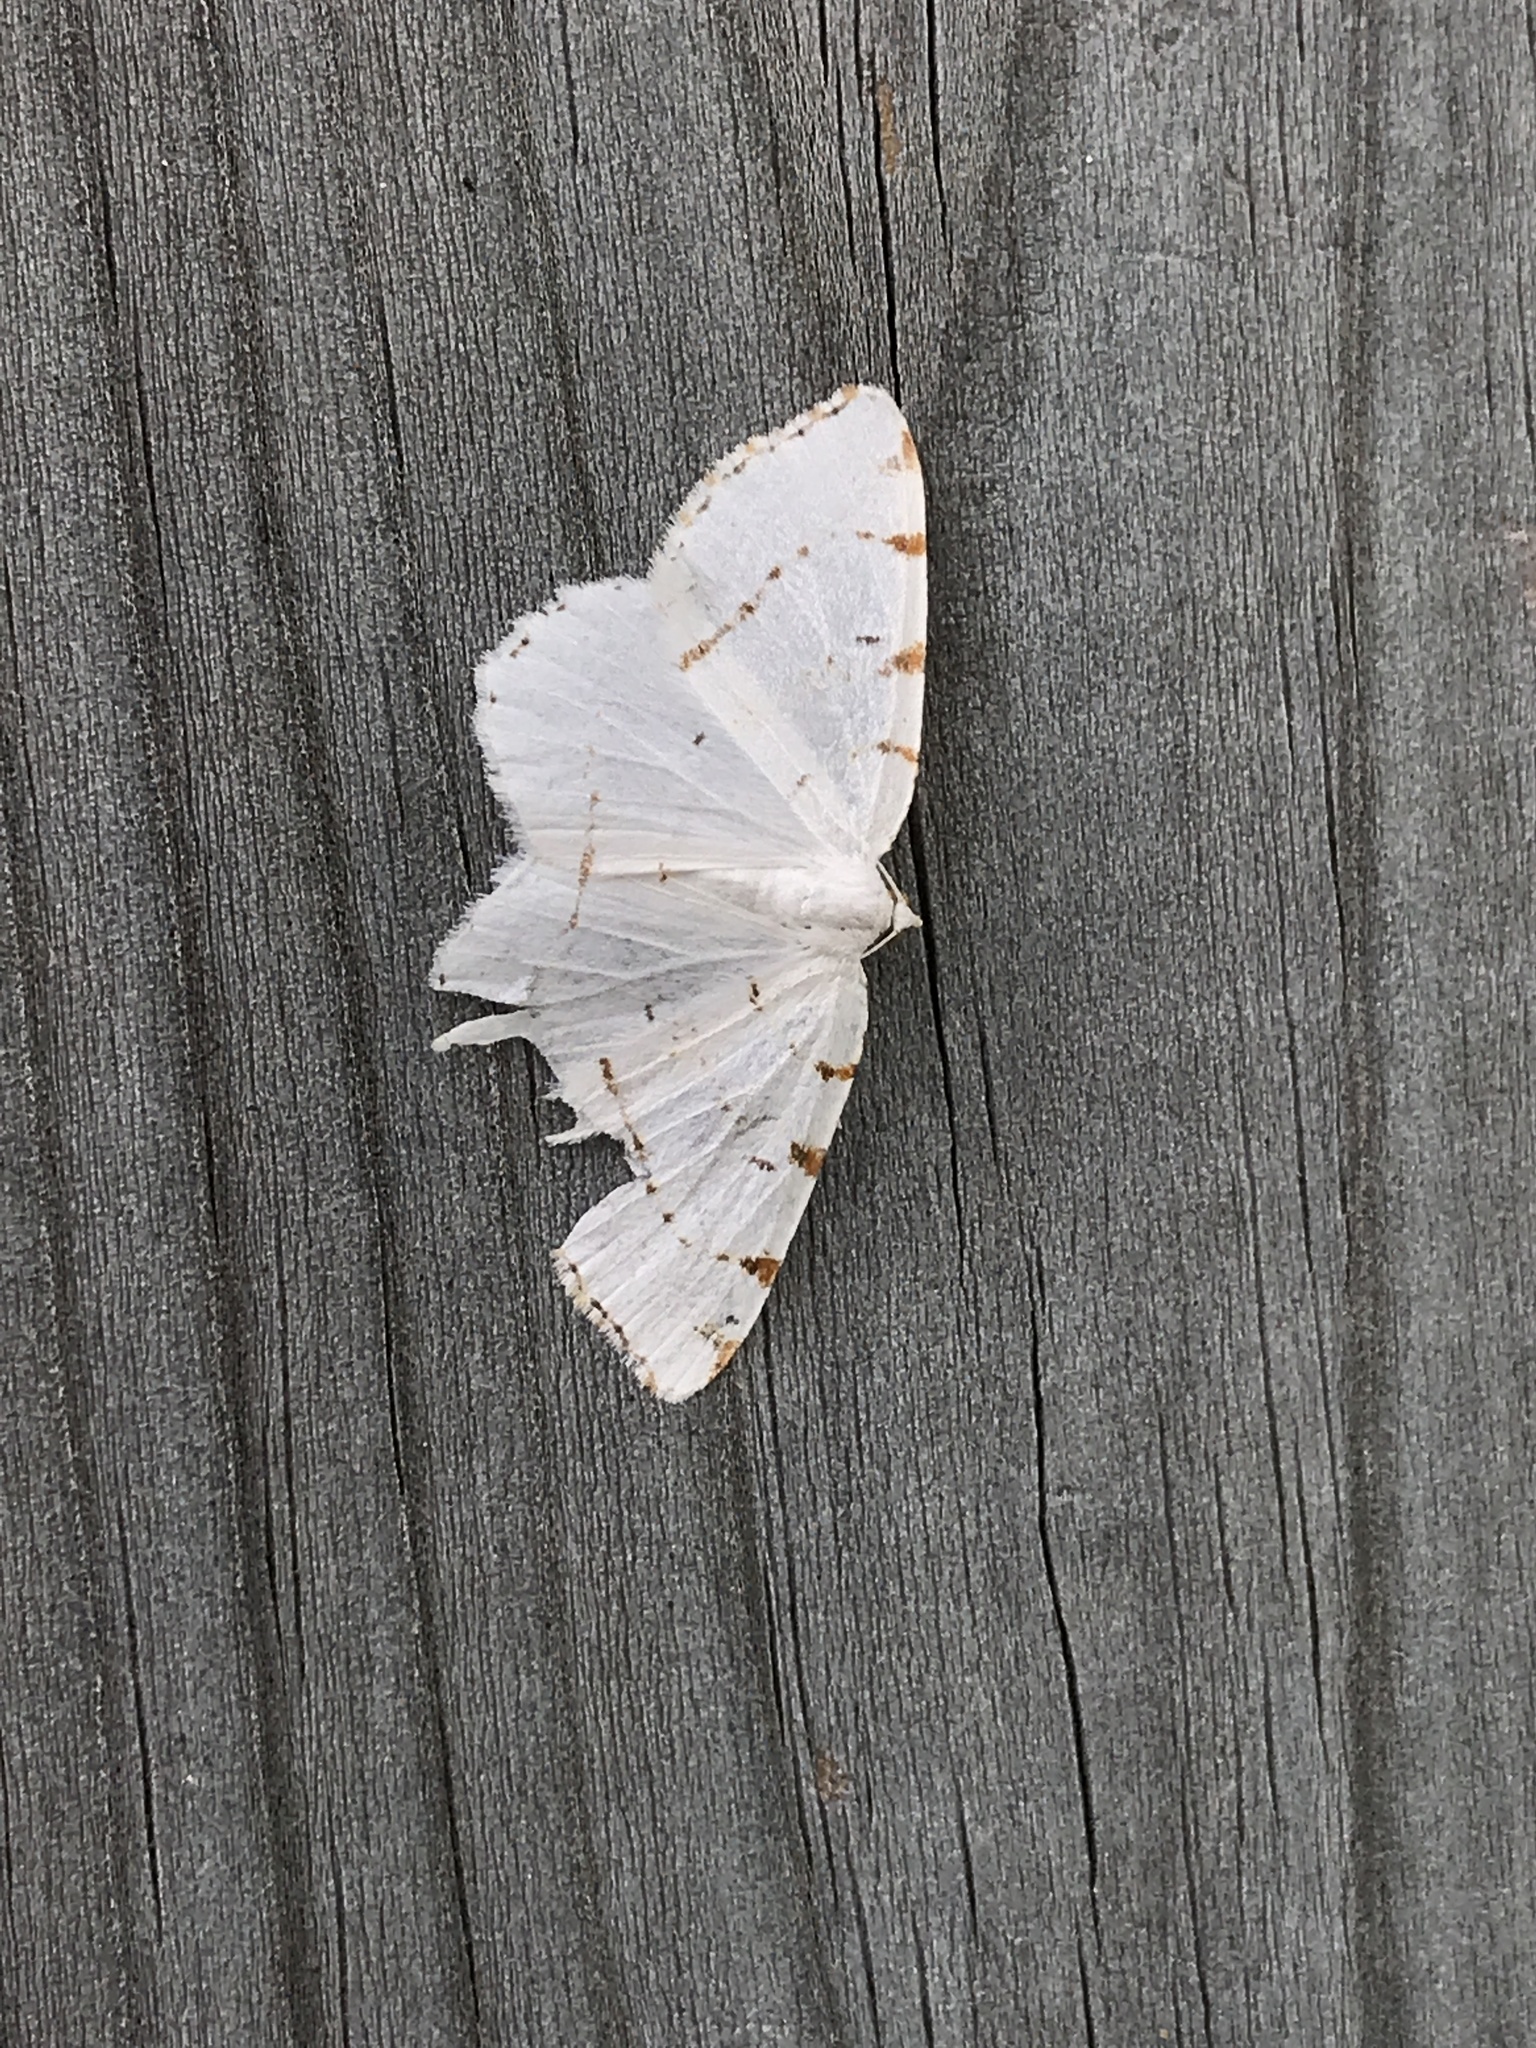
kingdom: Animalia
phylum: Arthropoda
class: Insecta
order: Lepidoptera
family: Geometridae
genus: Macaria
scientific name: Macaria pustularia
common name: Lesser maple spanworm moth
